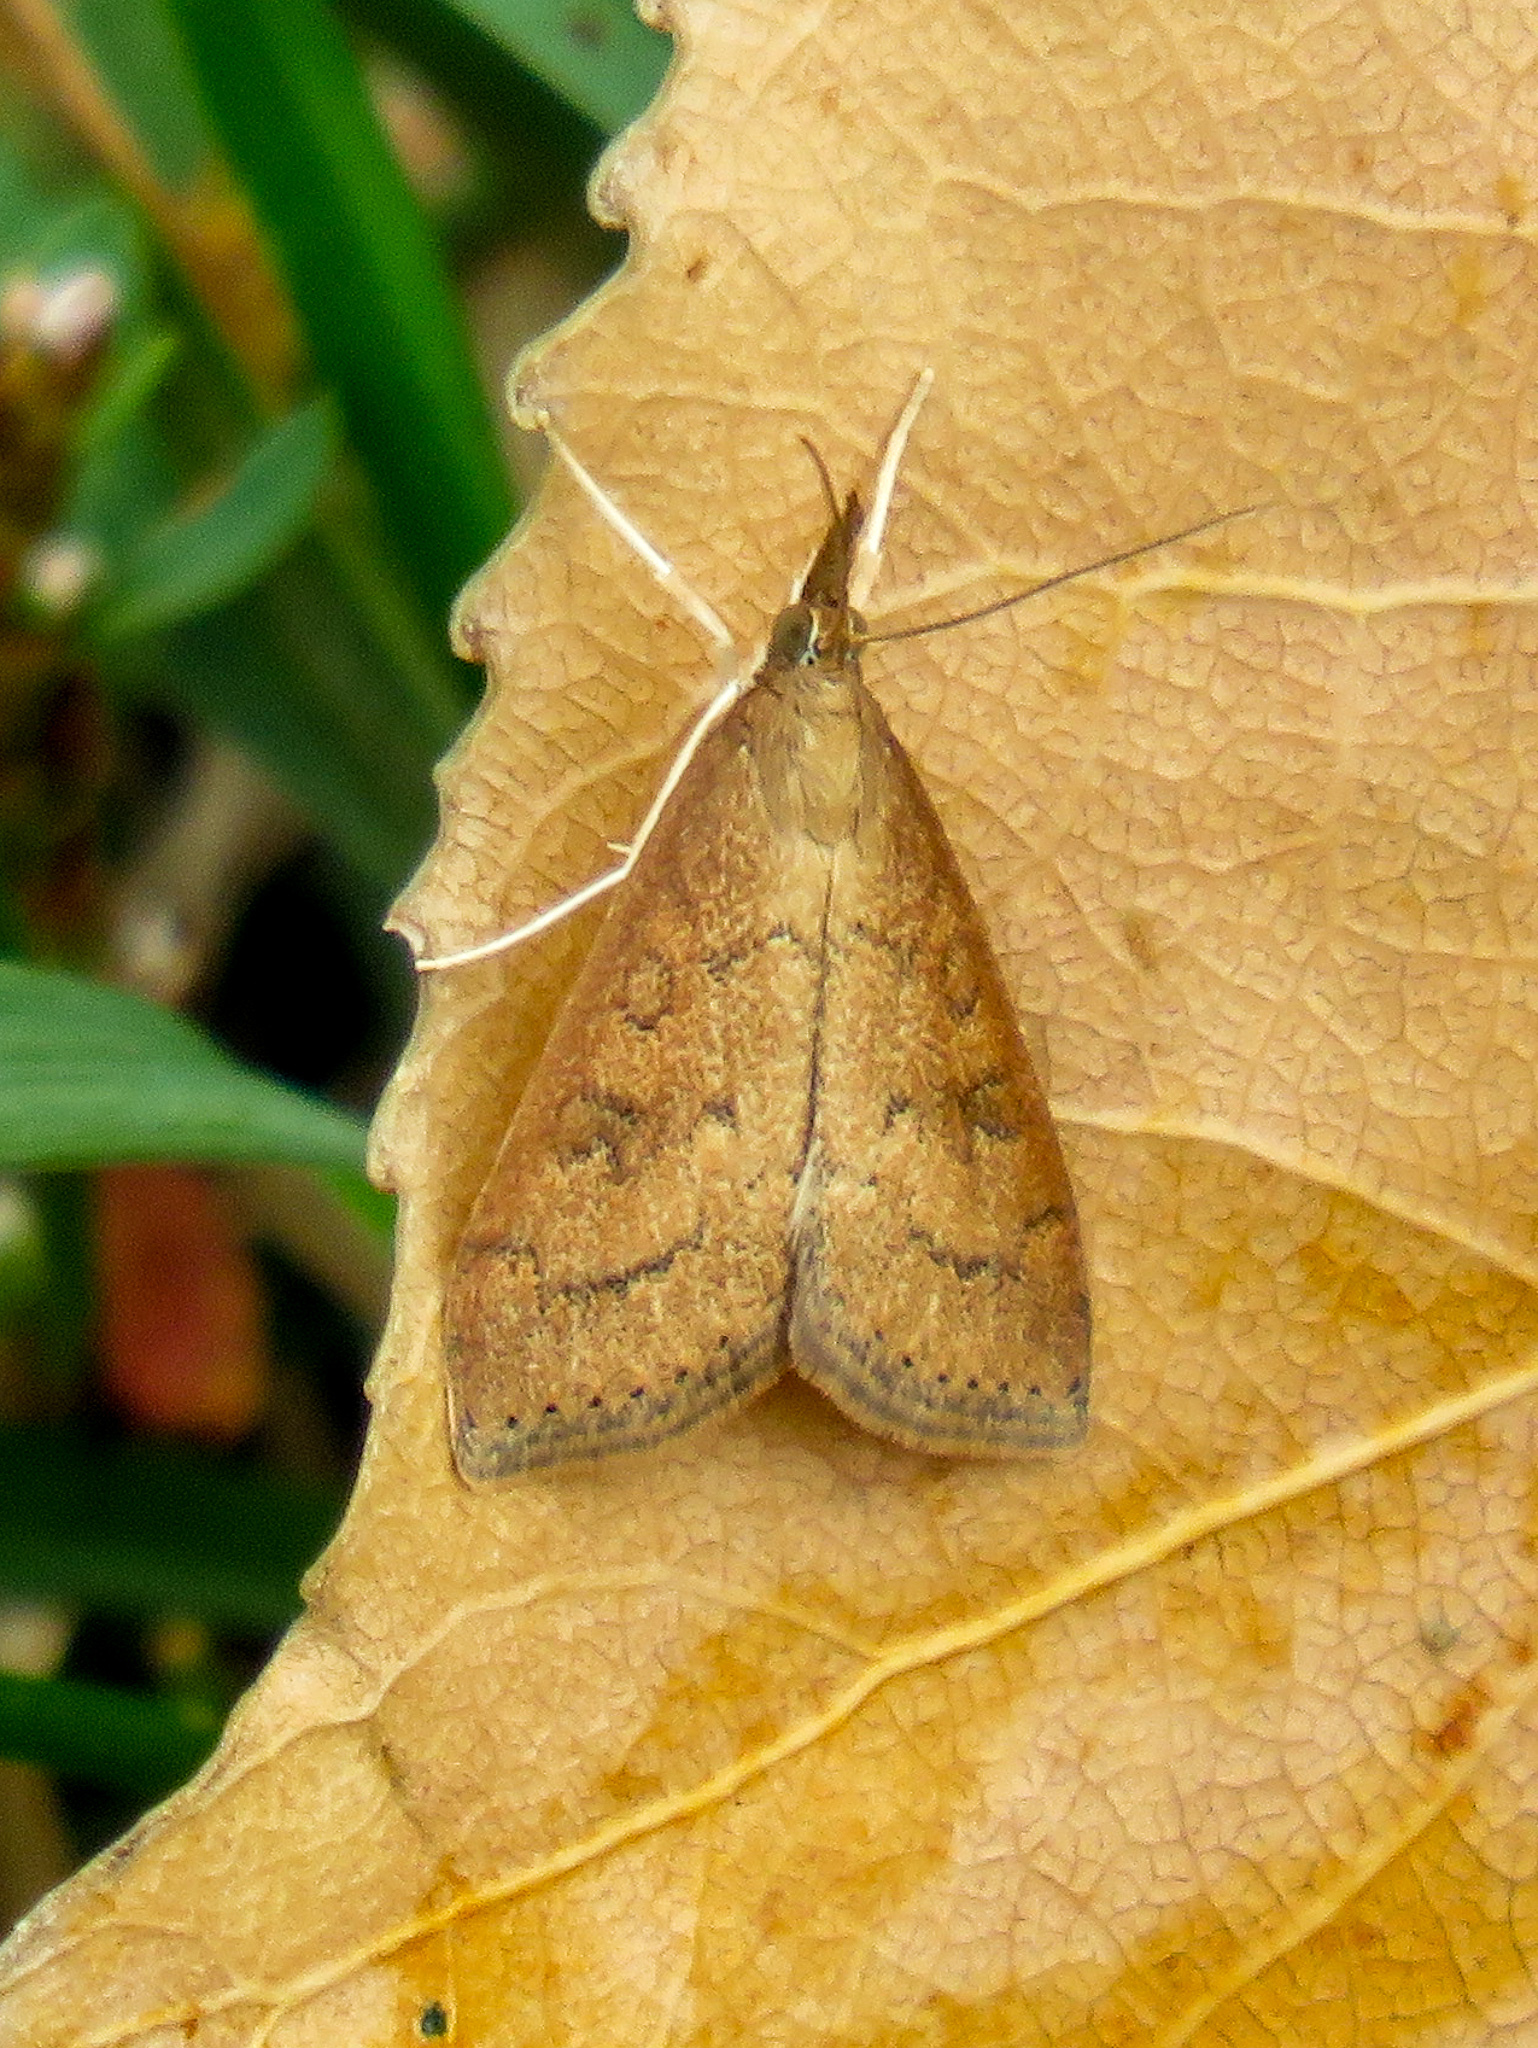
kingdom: Animalia
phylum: Arthropoda
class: Insecta
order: Lepidoptera
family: Crambidae
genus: Udea
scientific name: Udea rubigalis
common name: Celery leaftier moth
